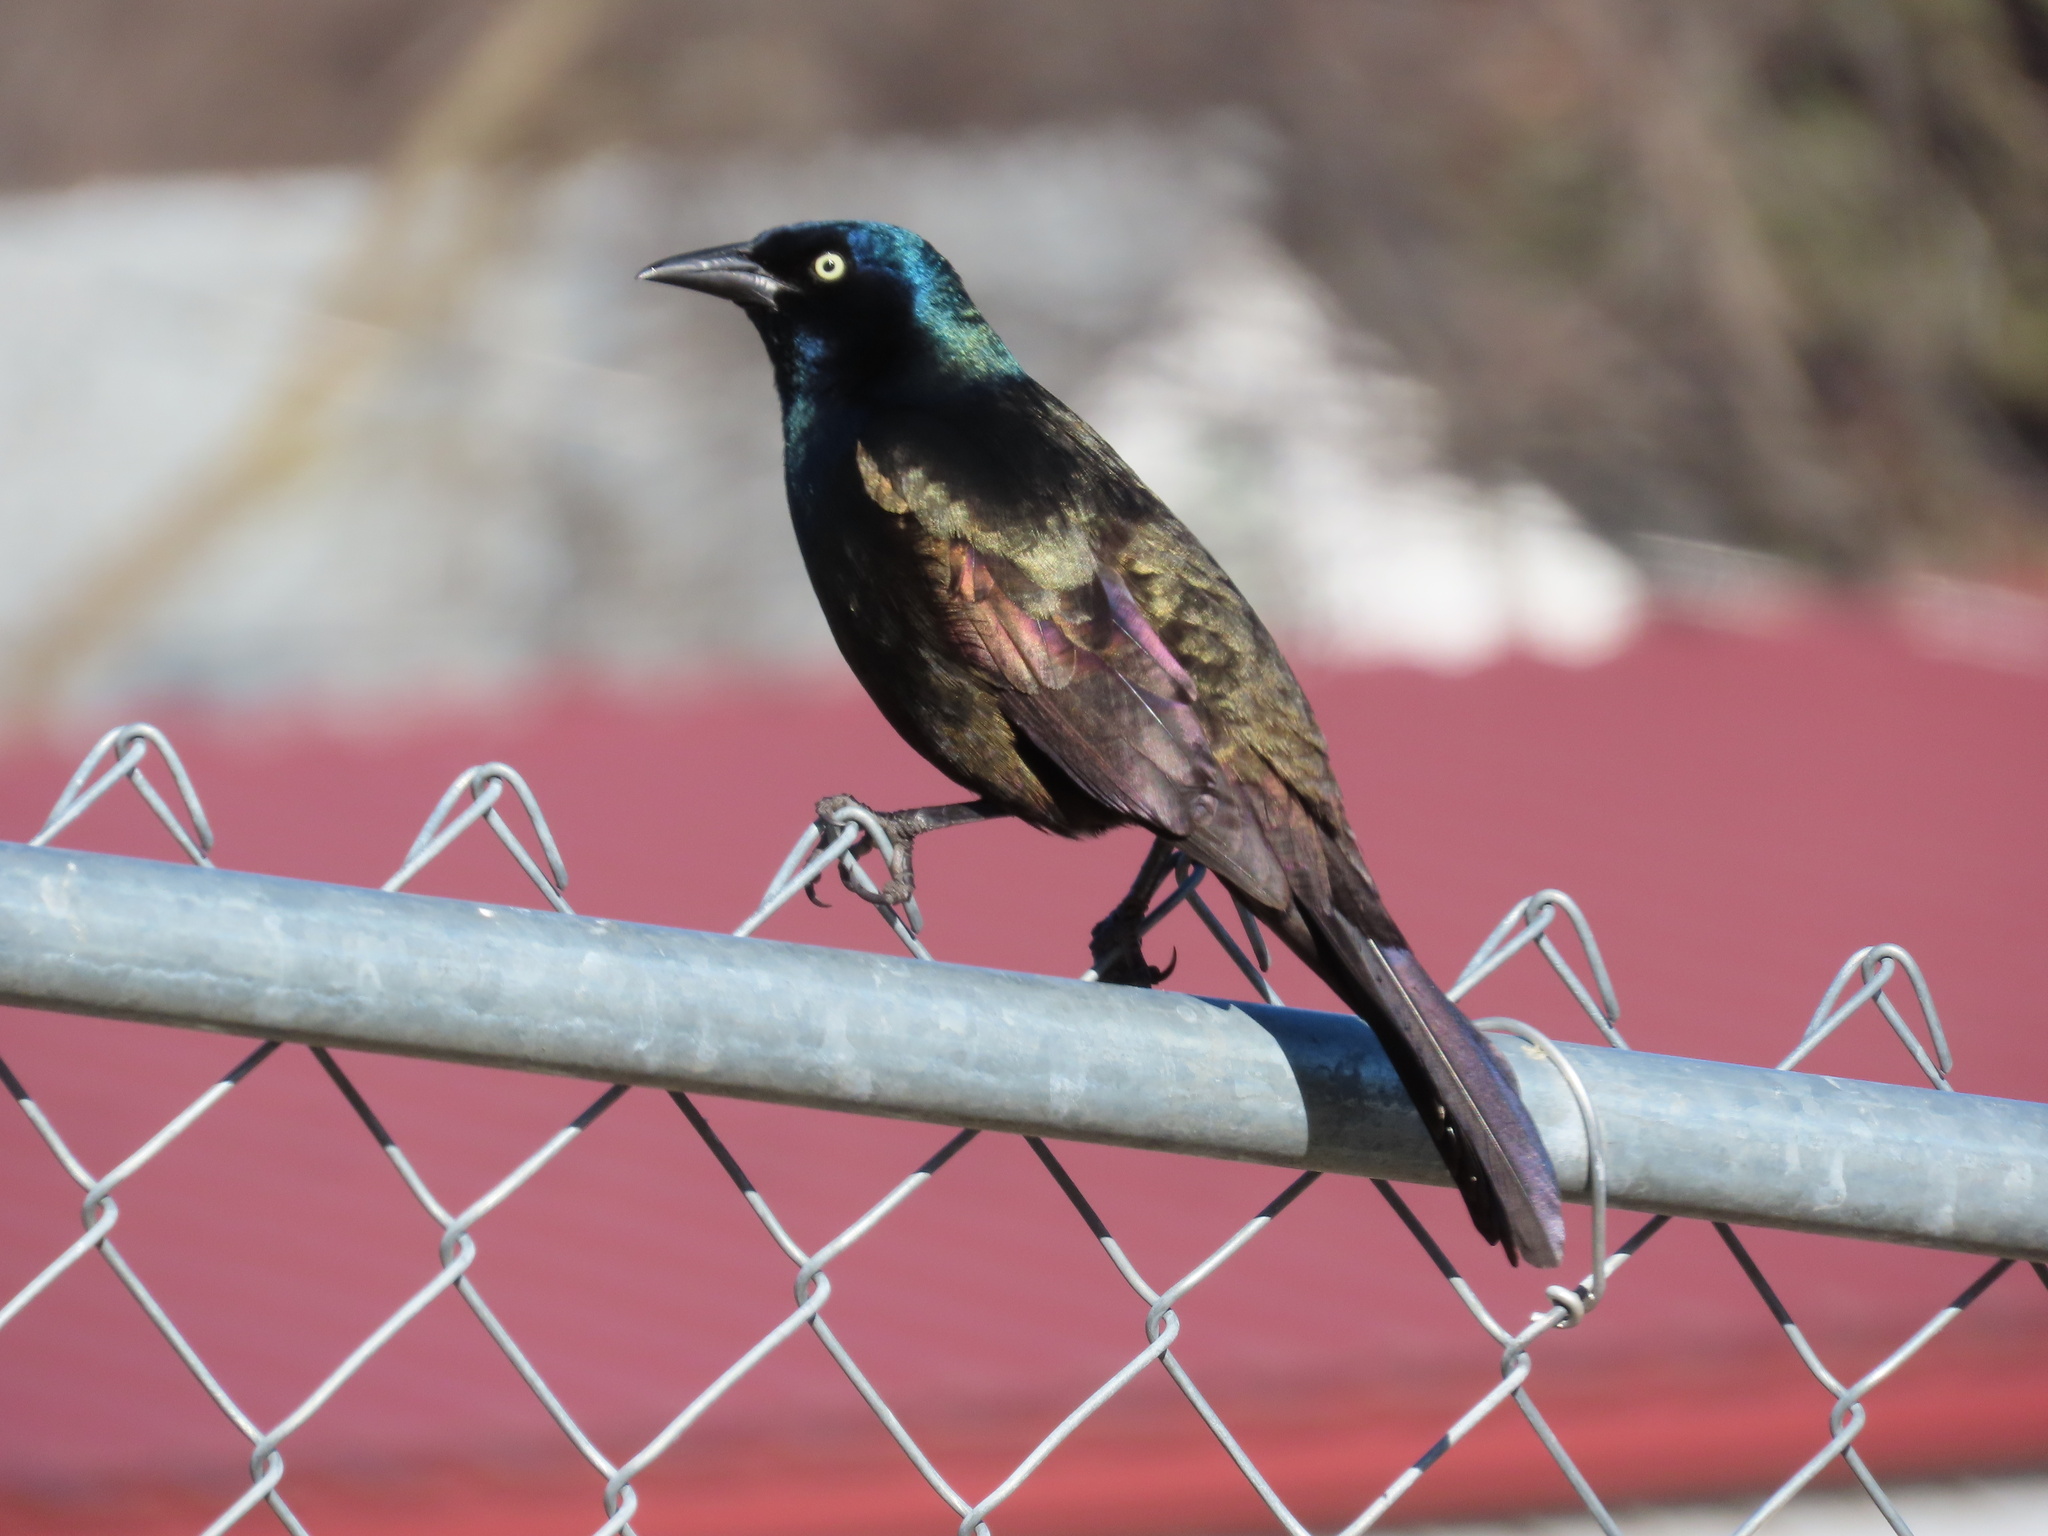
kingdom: Animalia
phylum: Chordata
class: Aves
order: Passeriformes
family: Icteridae
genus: Quiscalus
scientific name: Quiscalus quiscula
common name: Common grackle
